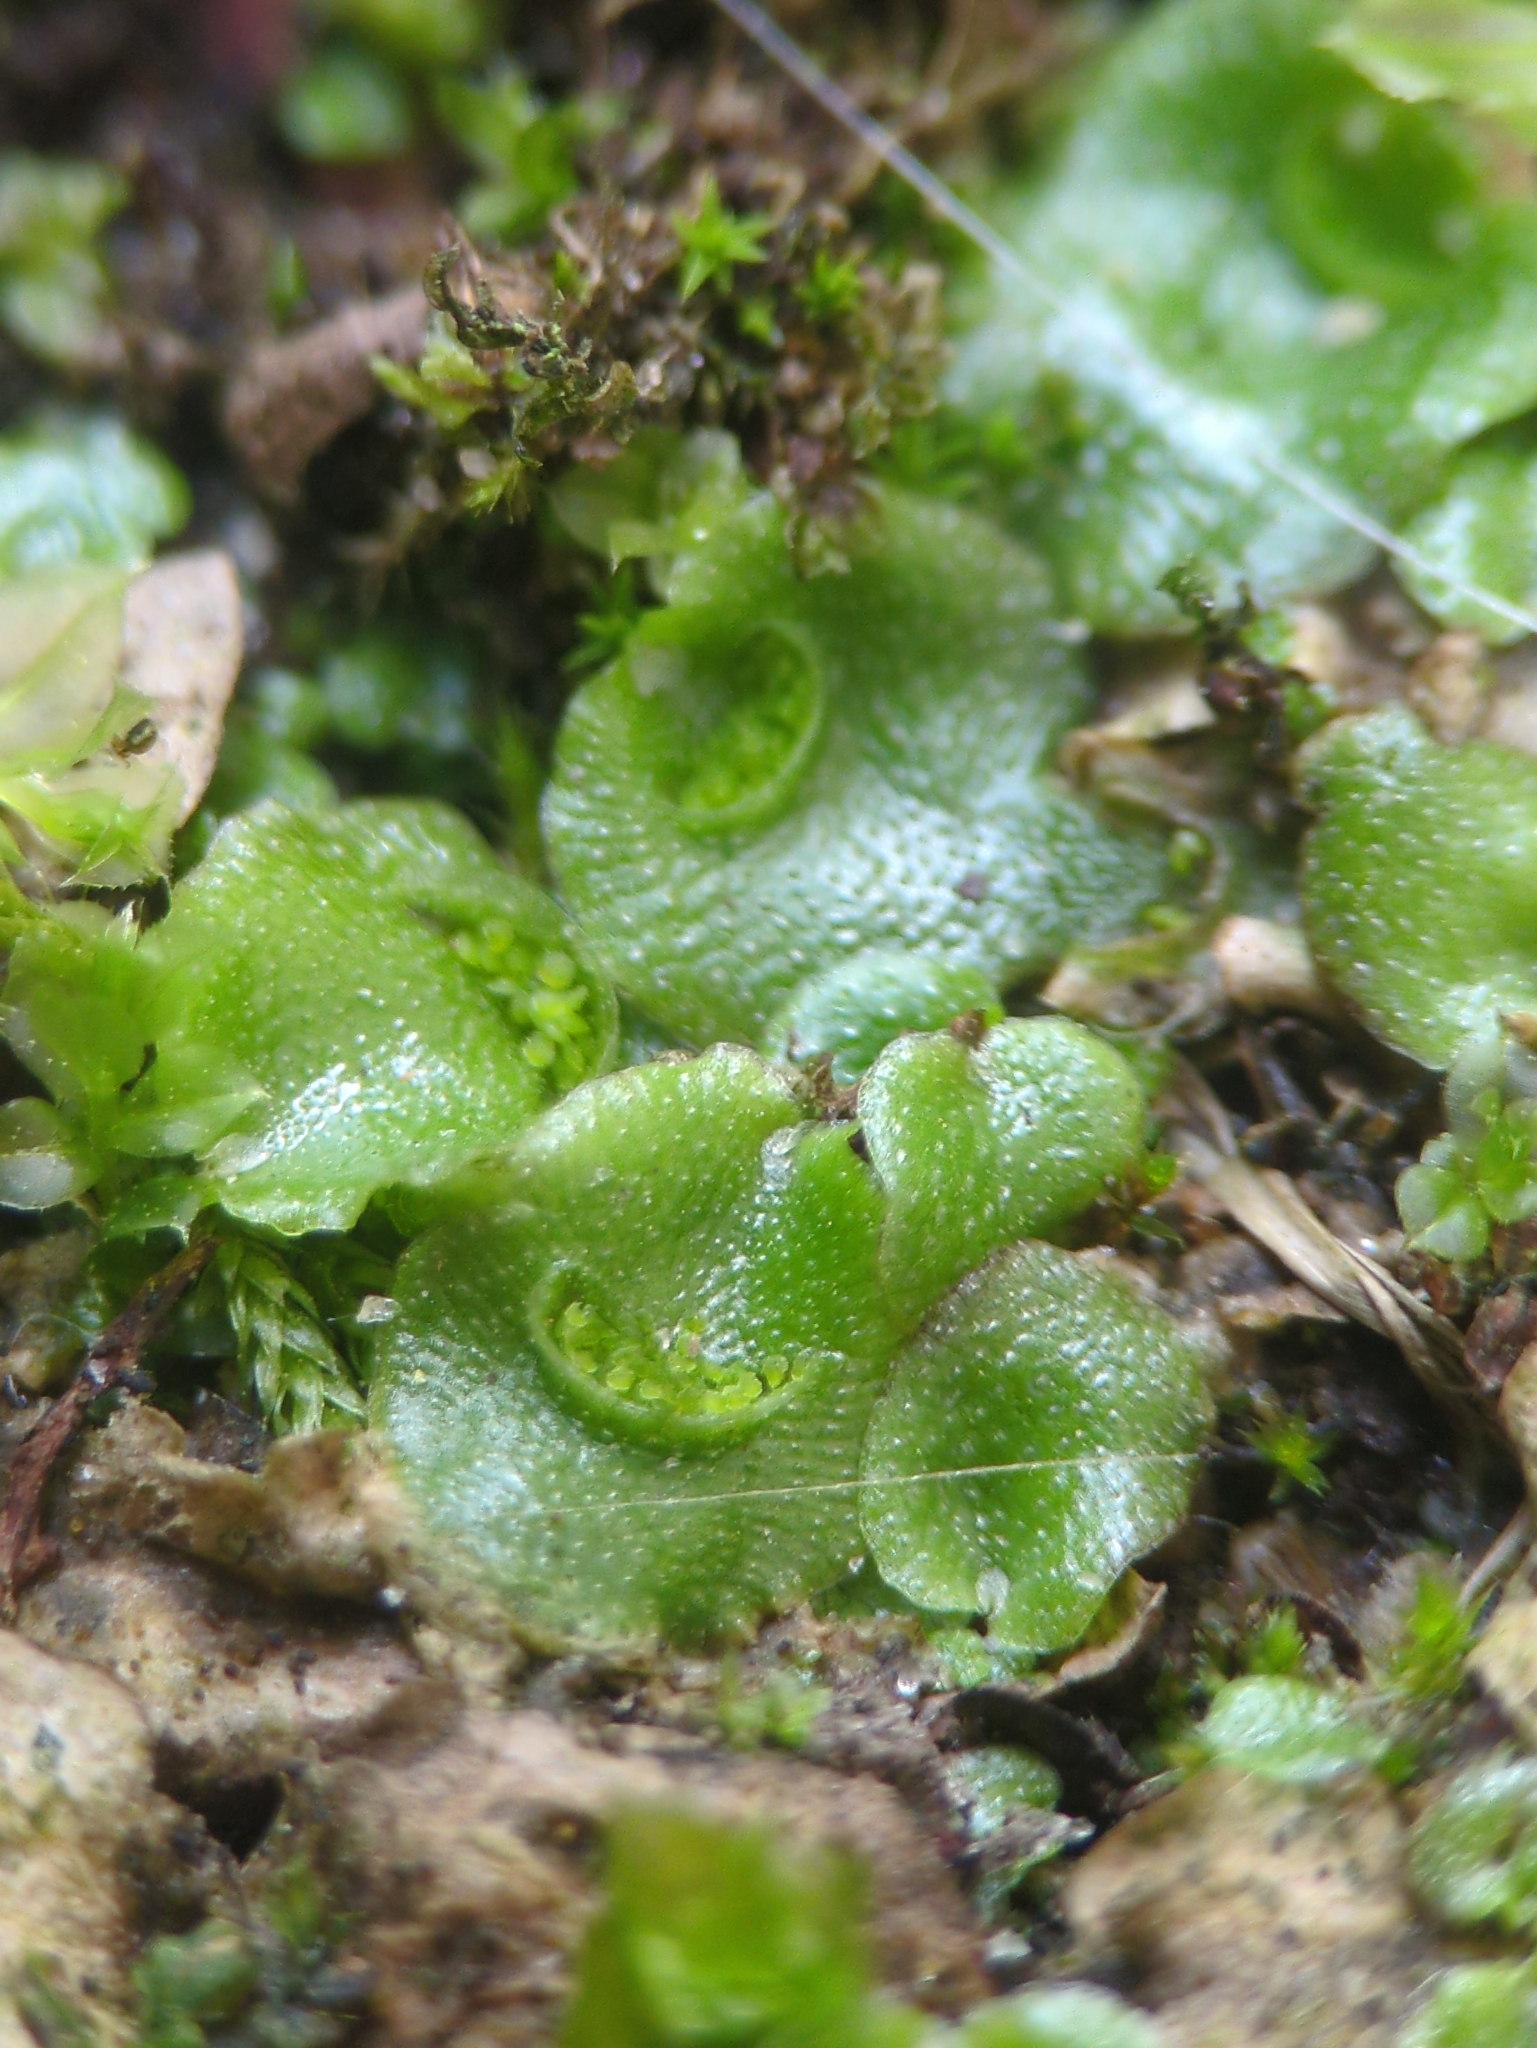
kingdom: Plantae
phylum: Marchantiophyta
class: Marchantiopsida
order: Lunulariales
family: Lunulariaceae
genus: Lunularia
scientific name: Lunularia cruciata
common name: Crescent-cup liverwort
